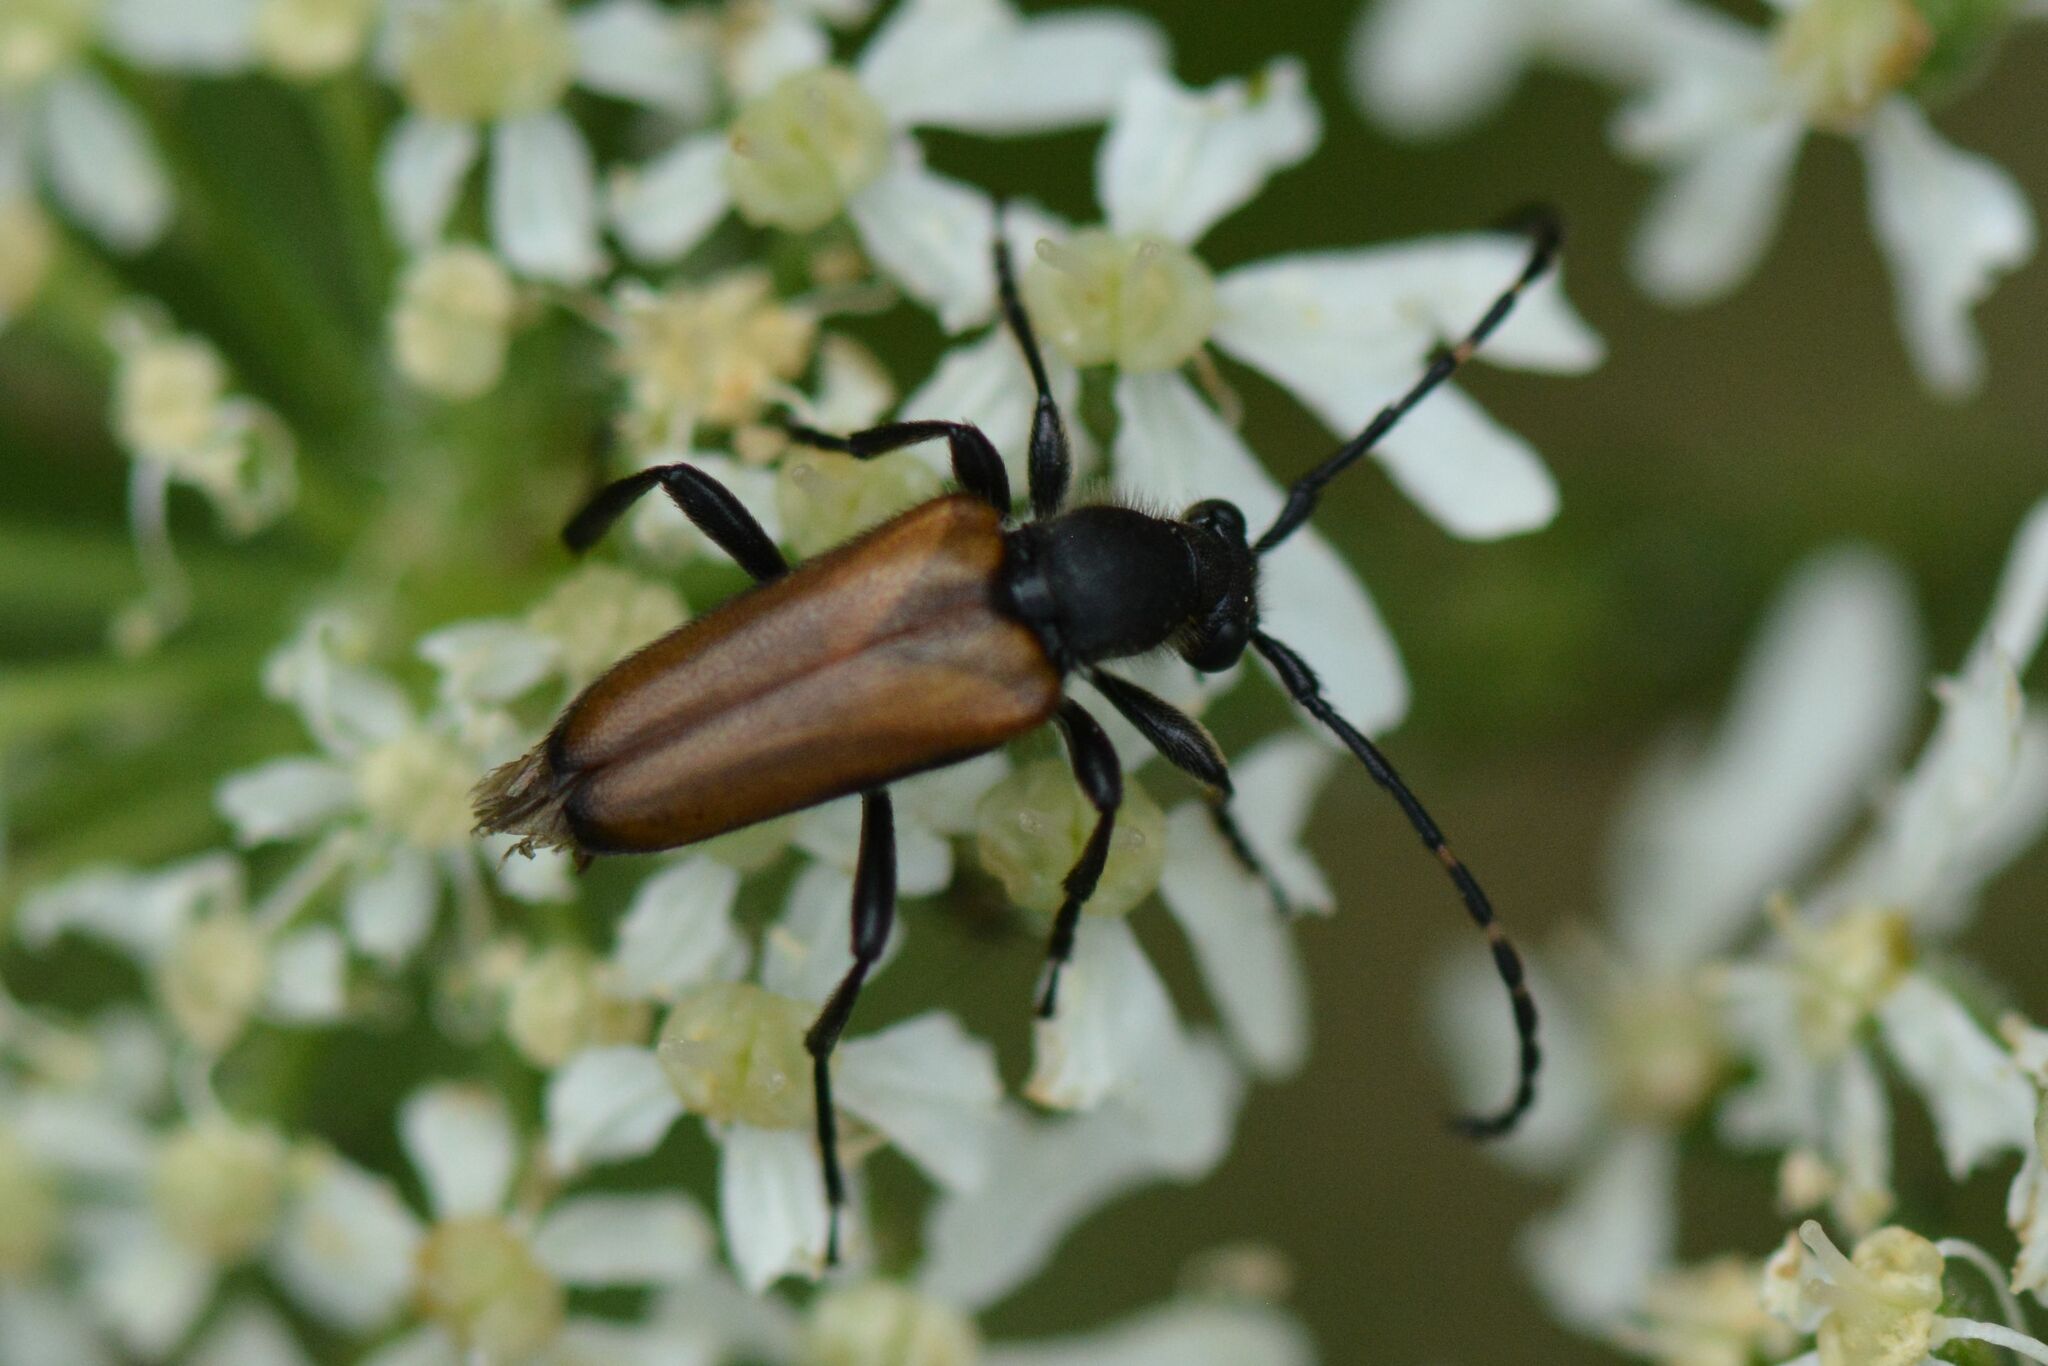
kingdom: Animalia
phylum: Arthropoda
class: Insecta
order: Coleoptera
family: Cerambycidae
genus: Paracorymbia
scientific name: Paracorymbia maculicornis
